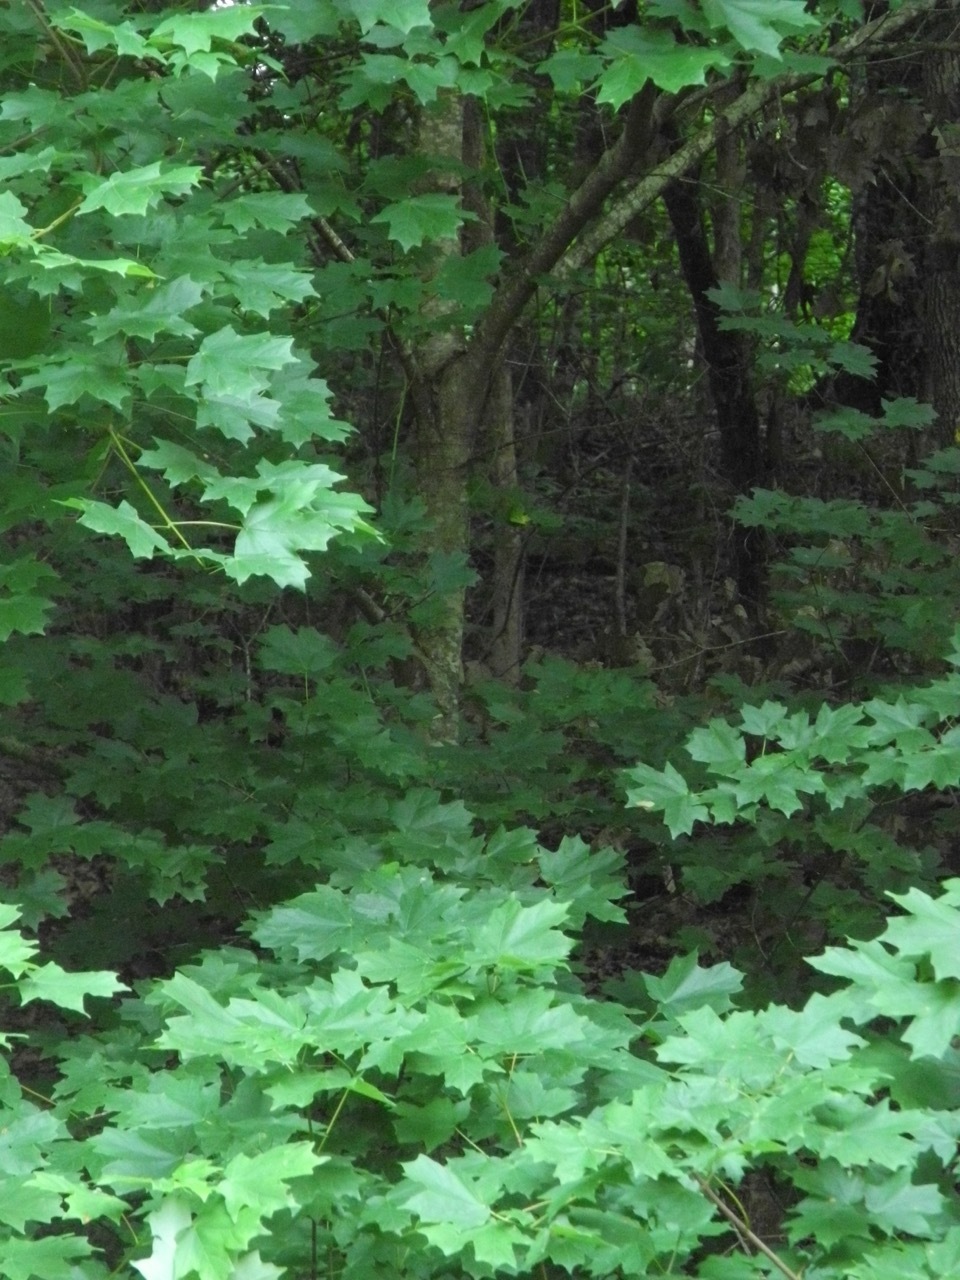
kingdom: Plantae
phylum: Tracheophyta
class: Magnoliopsida
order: Sapindales
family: Sapindaceae
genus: Acer
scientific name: Acer saccharum
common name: Sugar maple
